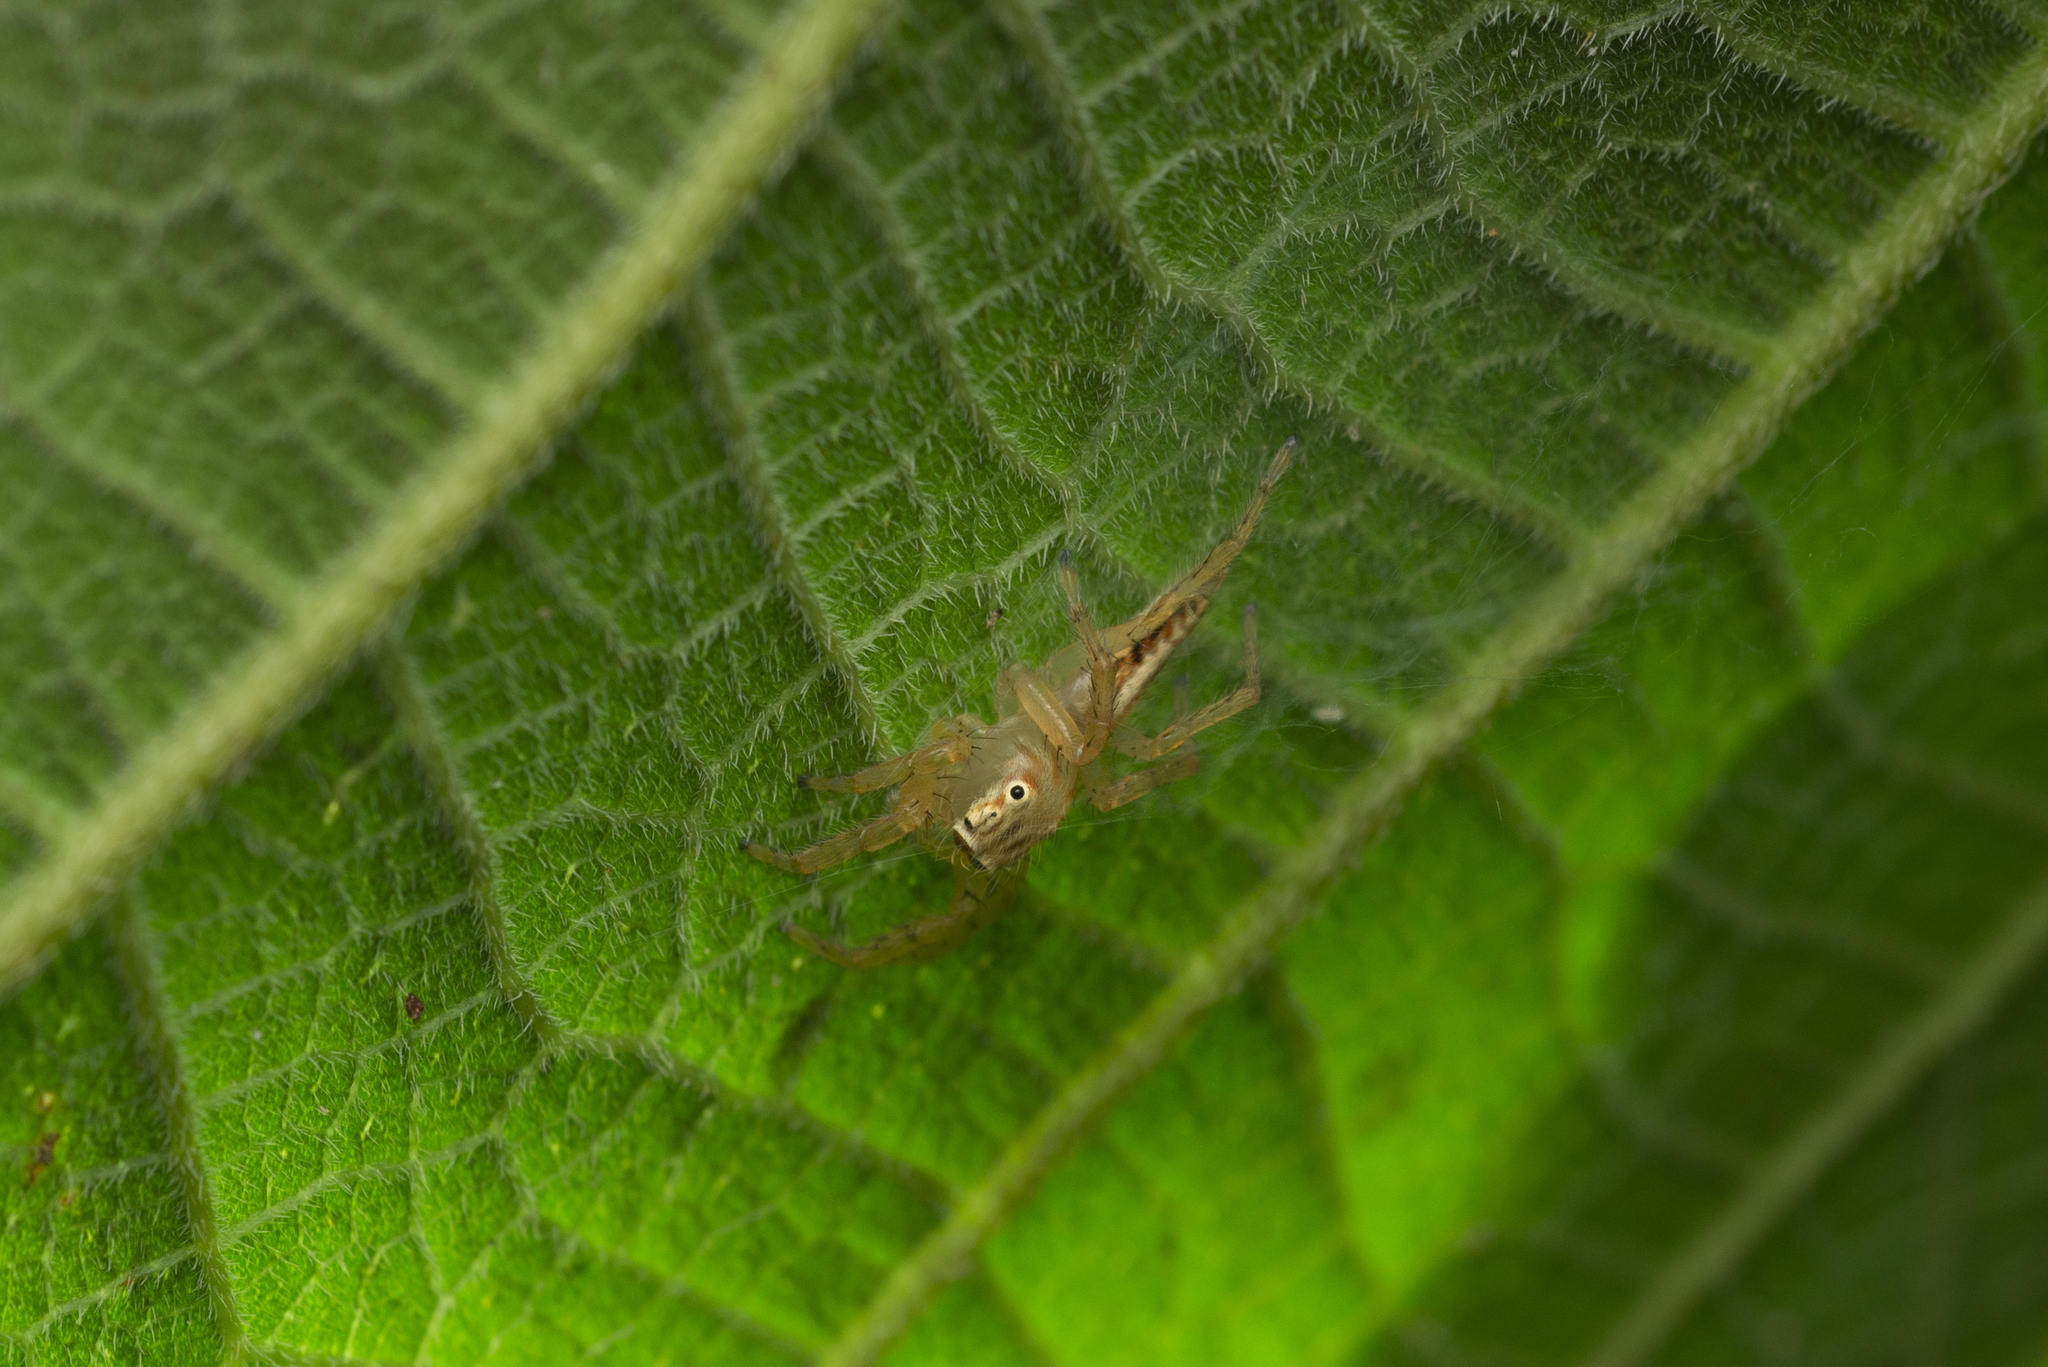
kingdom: Animalia
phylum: Arthropoda
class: Arachnida
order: Araneae
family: Salticidae
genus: Telamonia
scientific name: Telamonia caprina
